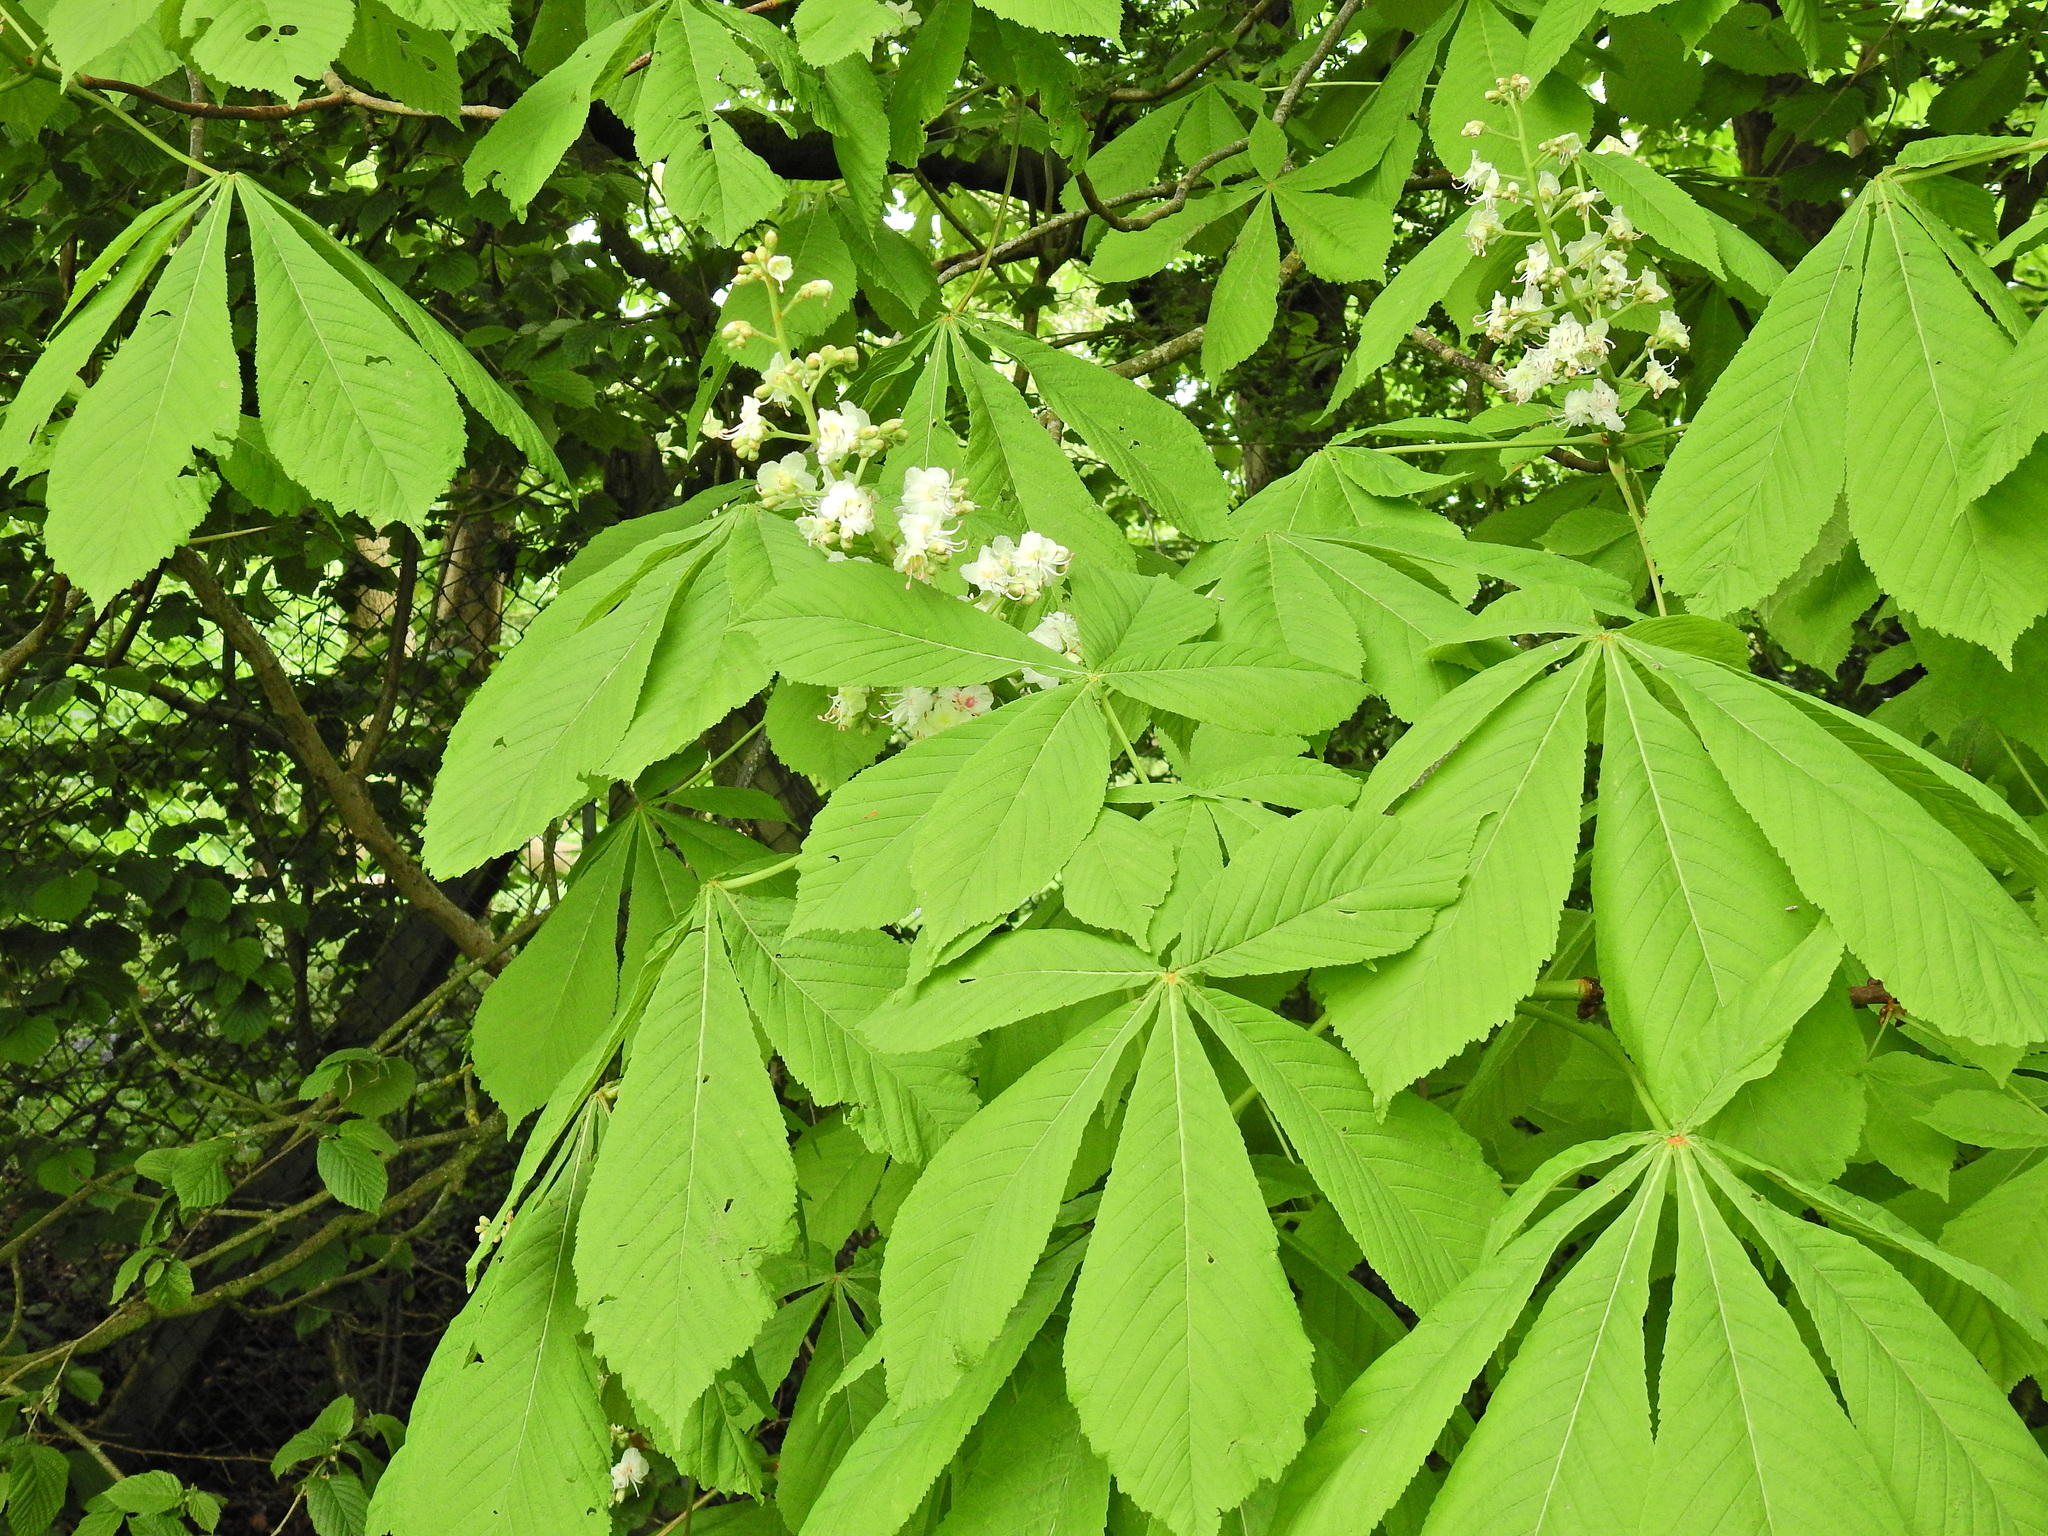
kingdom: Plantae
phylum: Tracheophyta
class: Magnoliopsida
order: Sapindales
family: Sapindaceae
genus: Aesculus
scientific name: Aesculus hippocastanum
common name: Horse-chestnut
